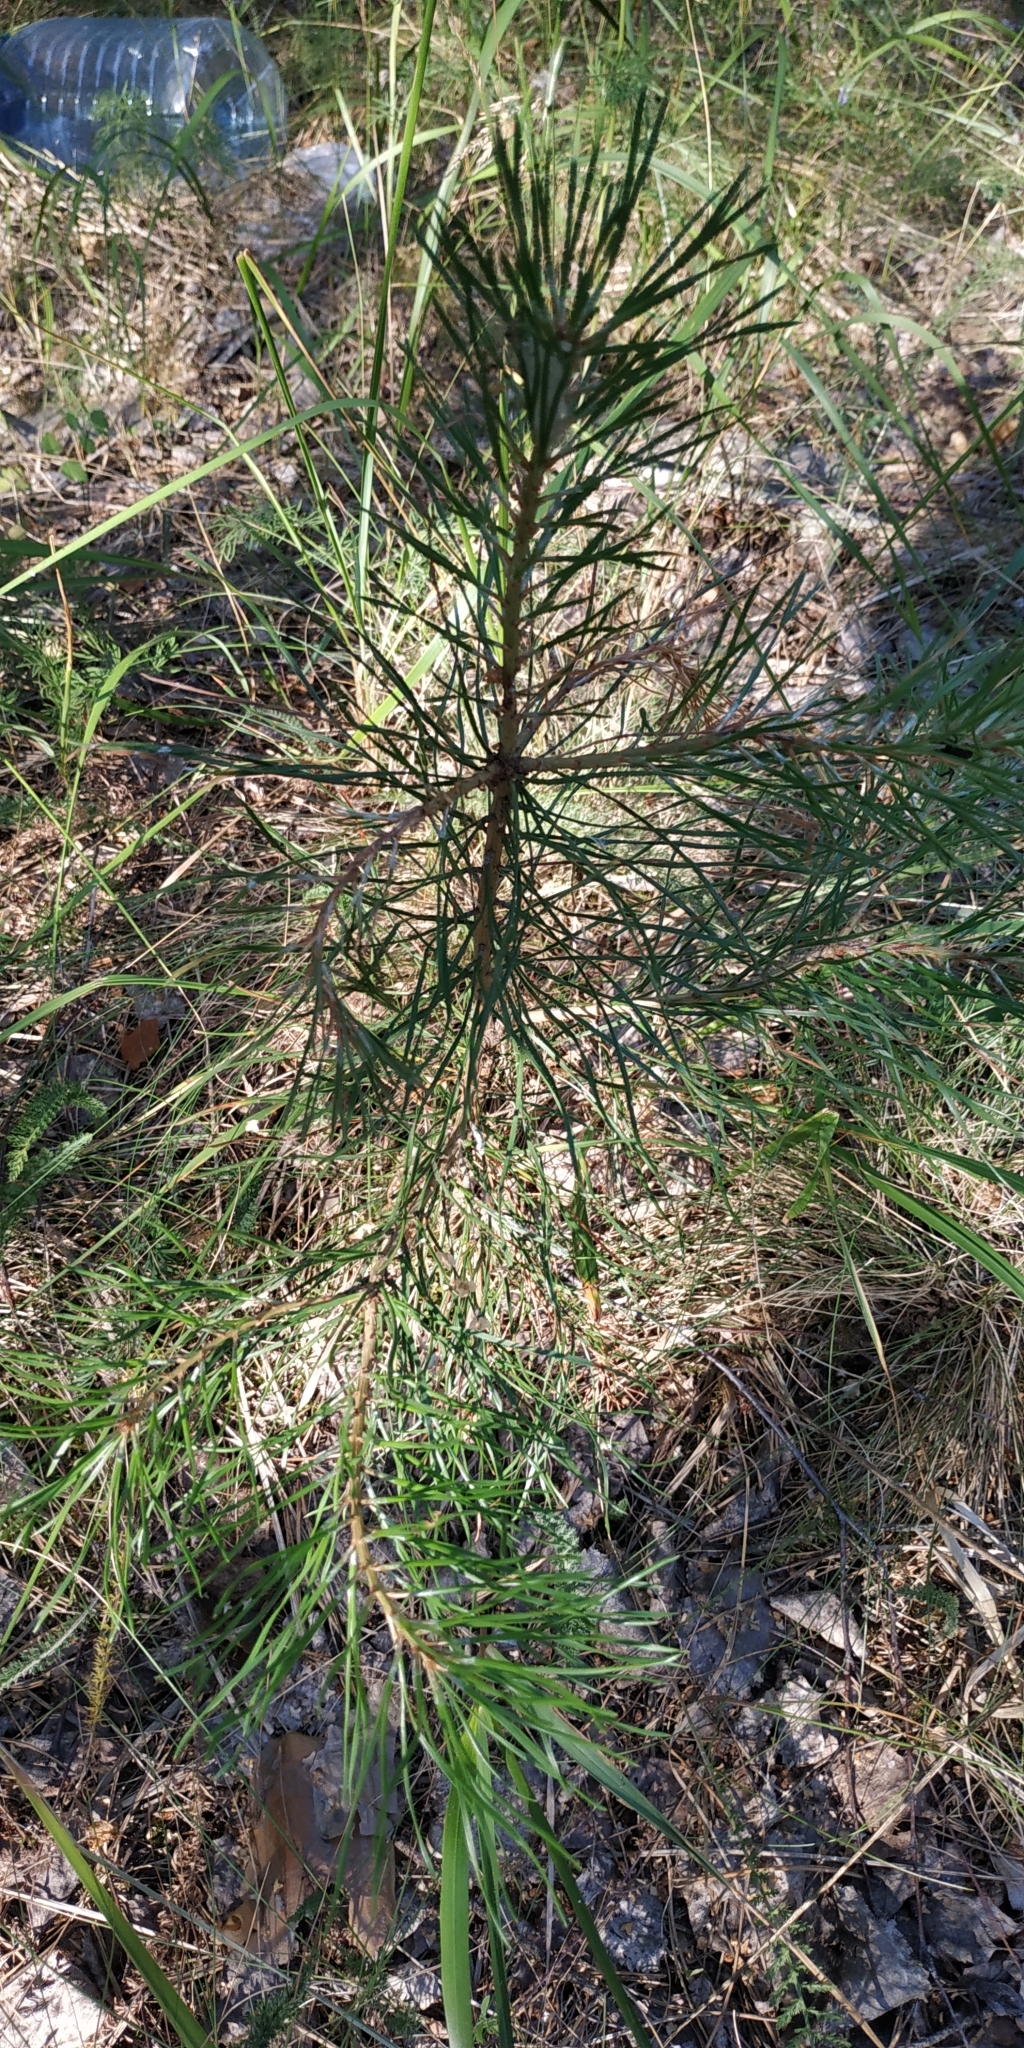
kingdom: Plantae
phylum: Tracheophyta
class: Pinopsida
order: Pinales
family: Pinaceae
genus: Pinus
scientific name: Pinus sylvestris
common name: Scots pine
